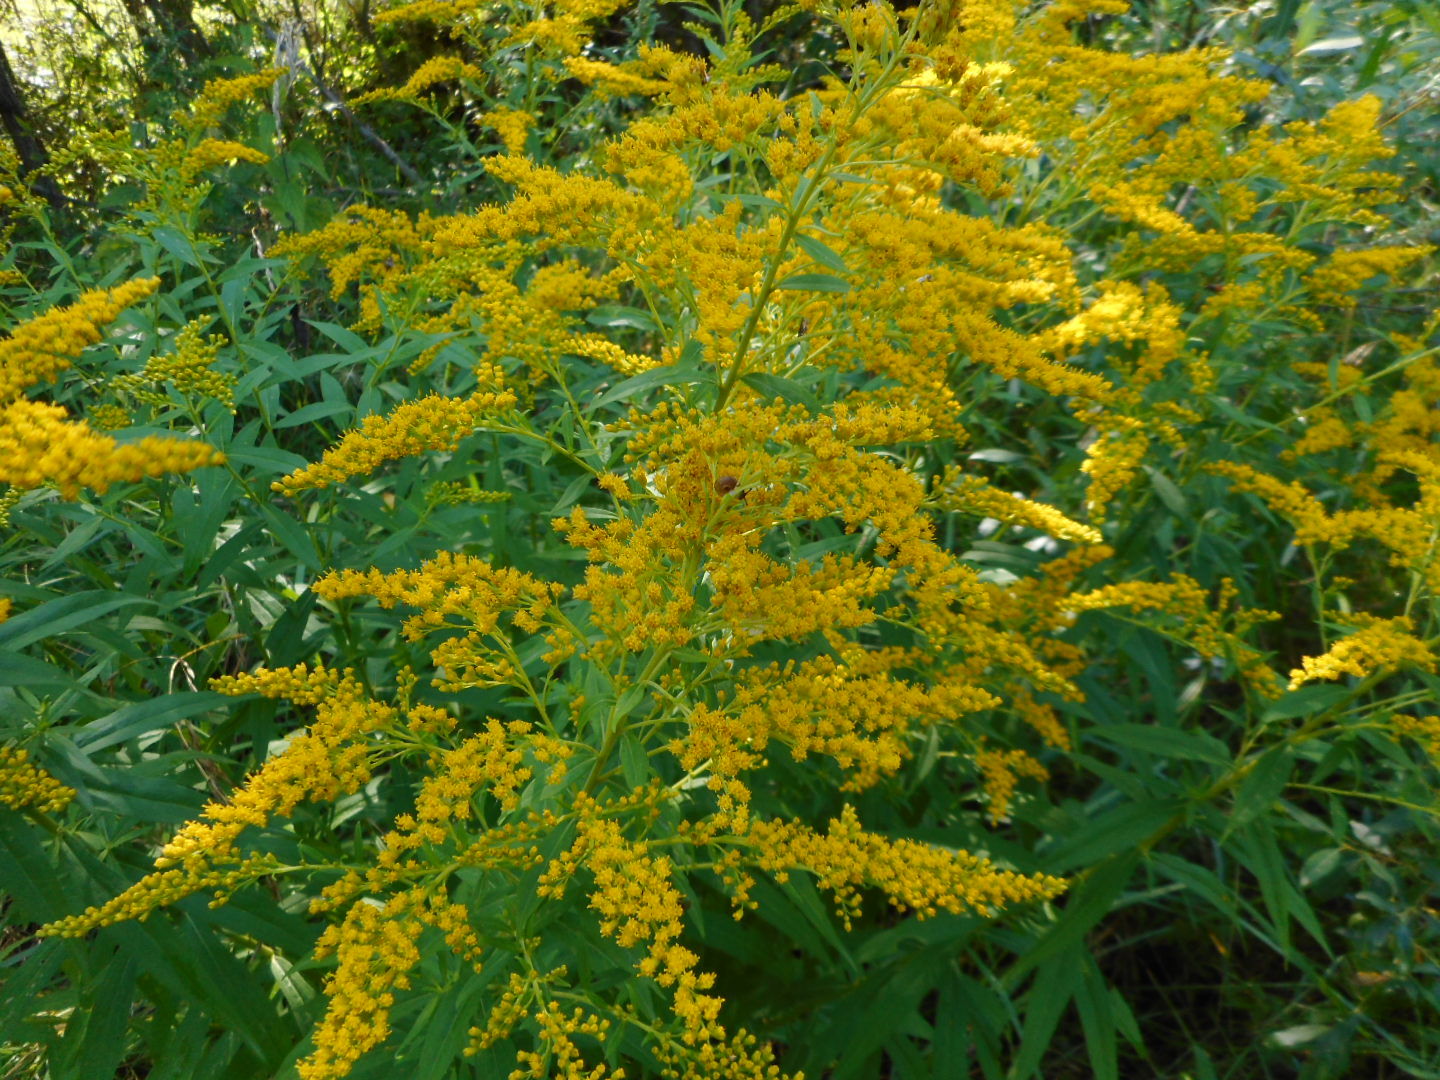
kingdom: Plantae
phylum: Tracheophyta
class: Magnoliopsida
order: Asterales
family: Asteraceae
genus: Solidago
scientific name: Solidago canadensis
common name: Canada goldenrod
